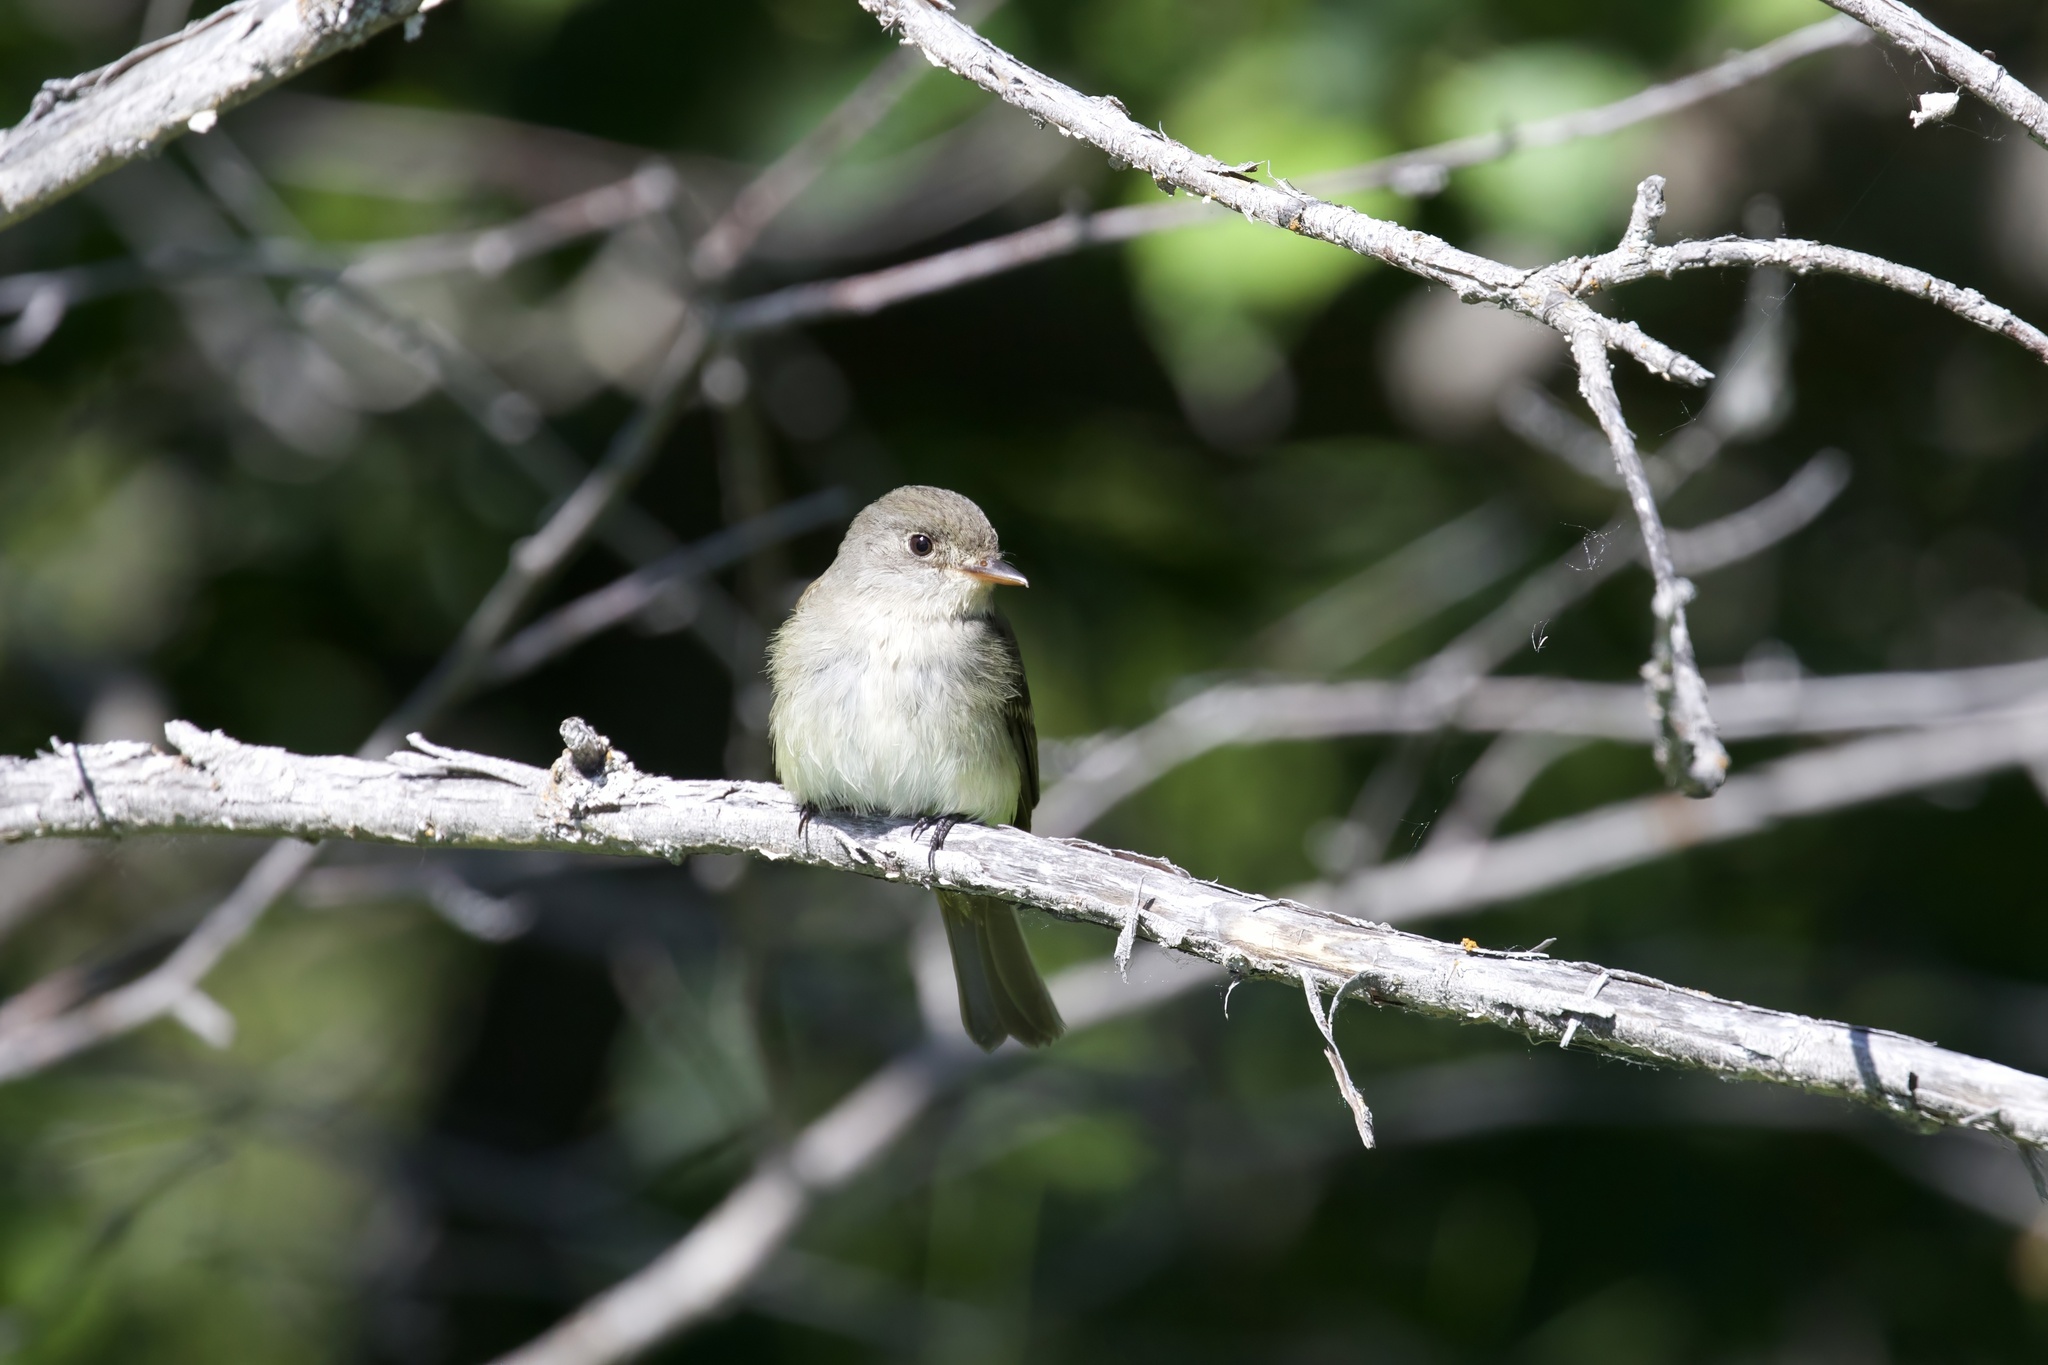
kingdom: Animalia
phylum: Chordata
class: Aves
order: Passeriformes
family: Tyrannidae
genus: Empidonax
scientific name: Empidonax traillii
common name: Willow flycatcher
